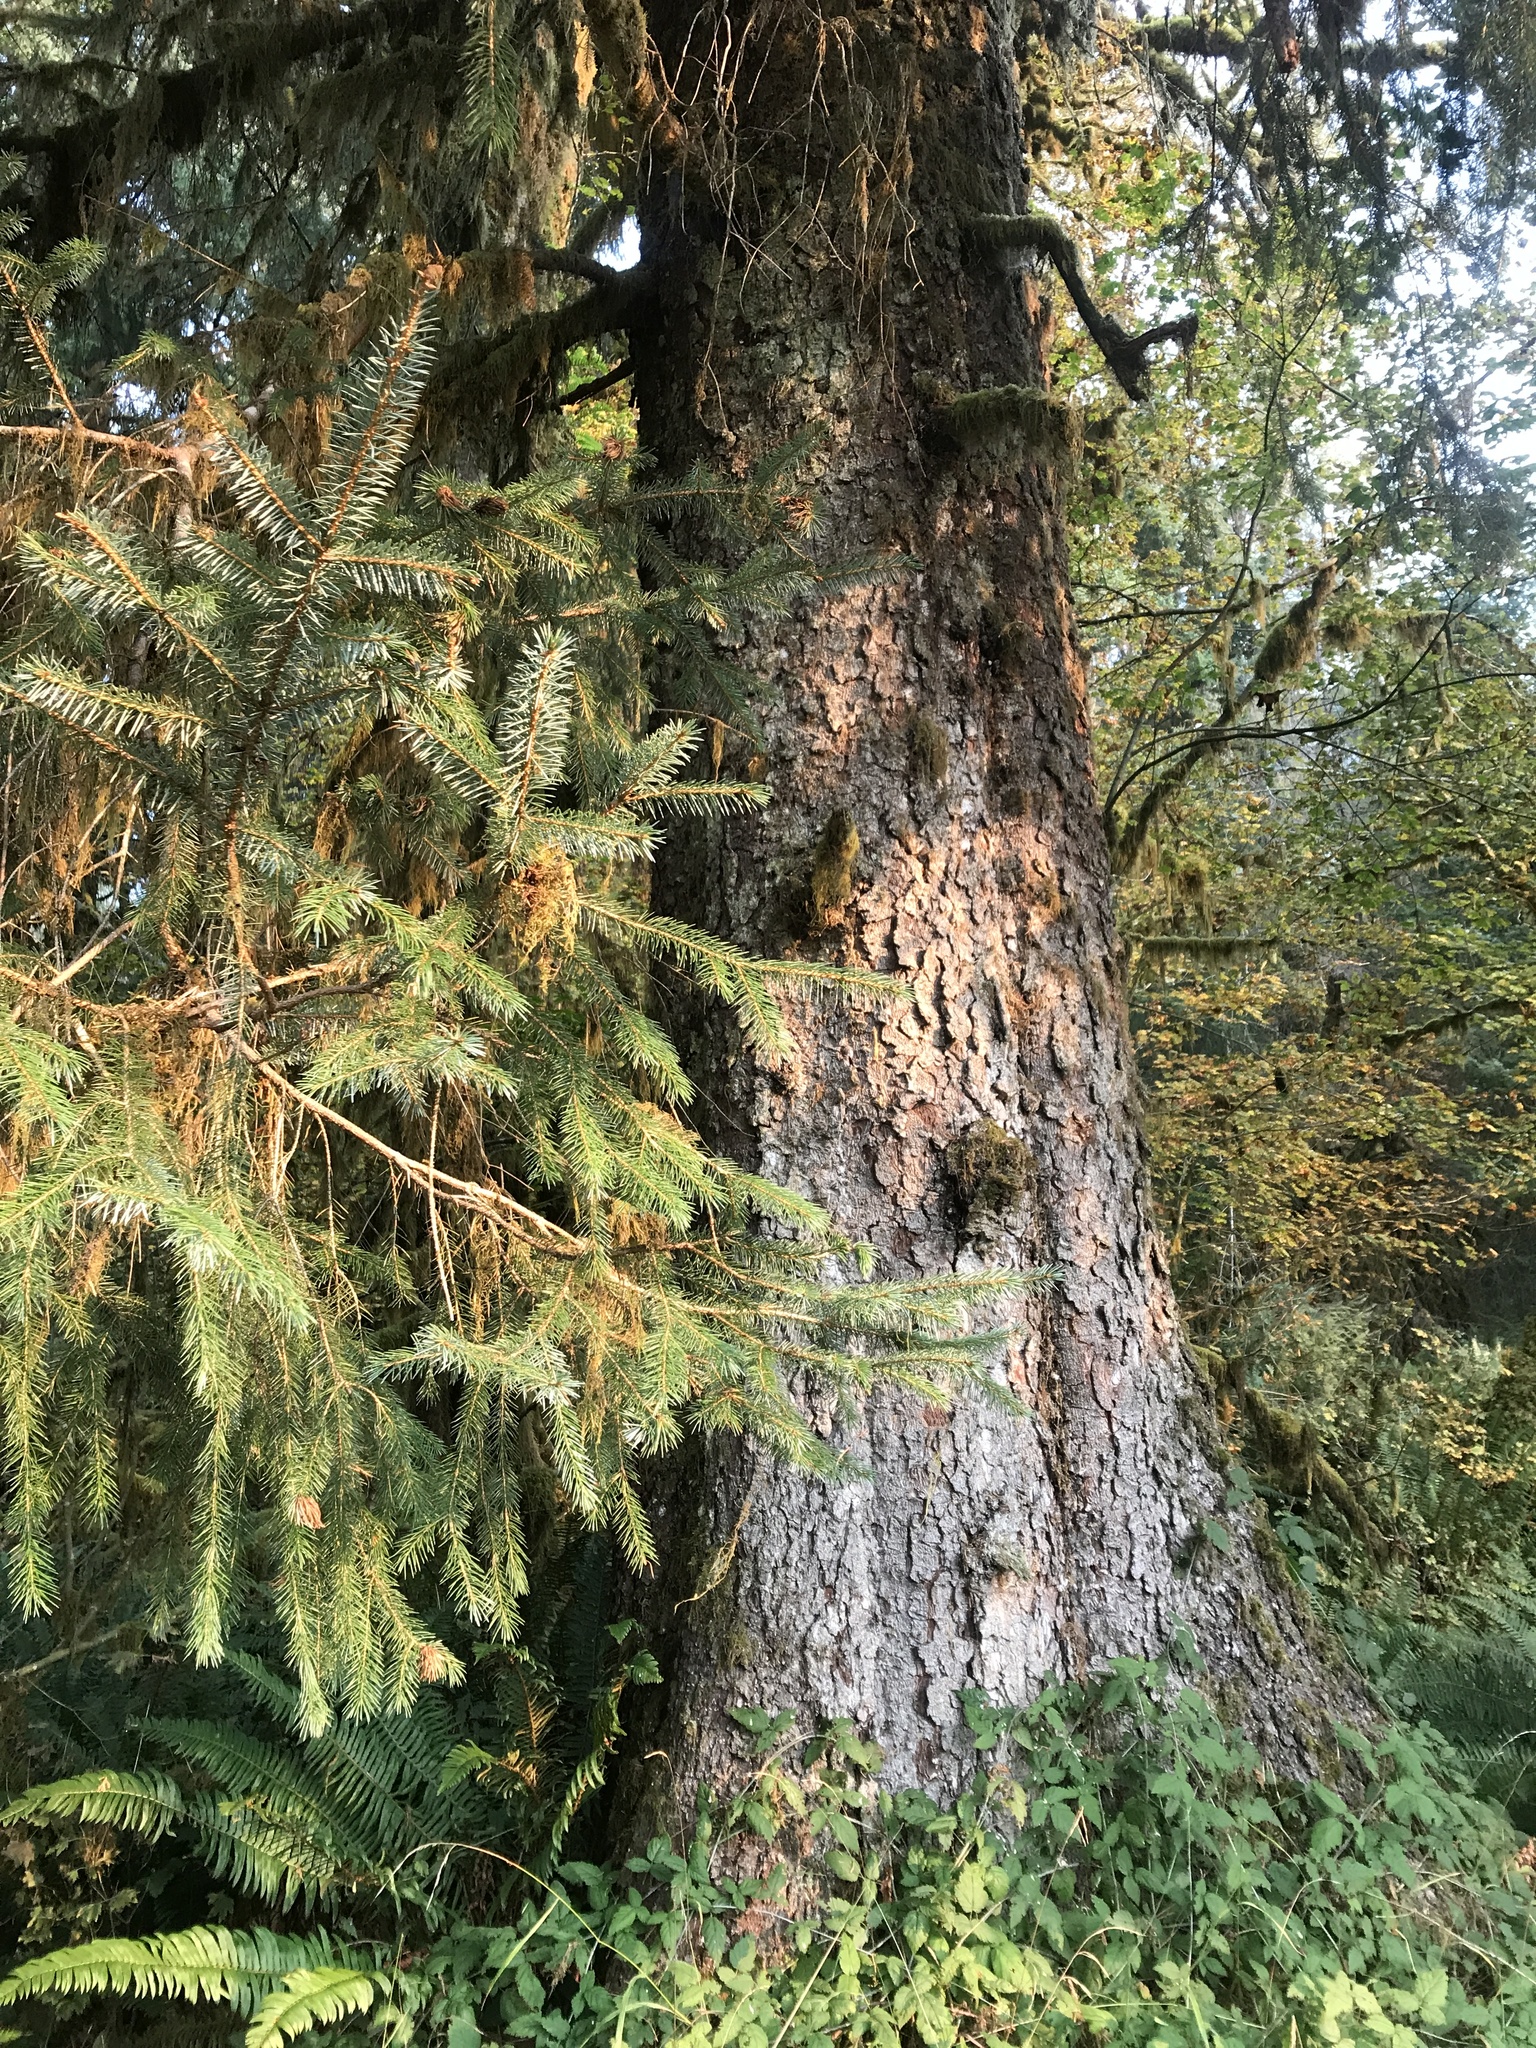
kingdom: Plantae
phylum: Tracheophyta
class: Pinopsida
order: Pinales
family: Pinaceae
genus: Picea
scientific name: Picea sitchensis
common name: Sitka spruce
